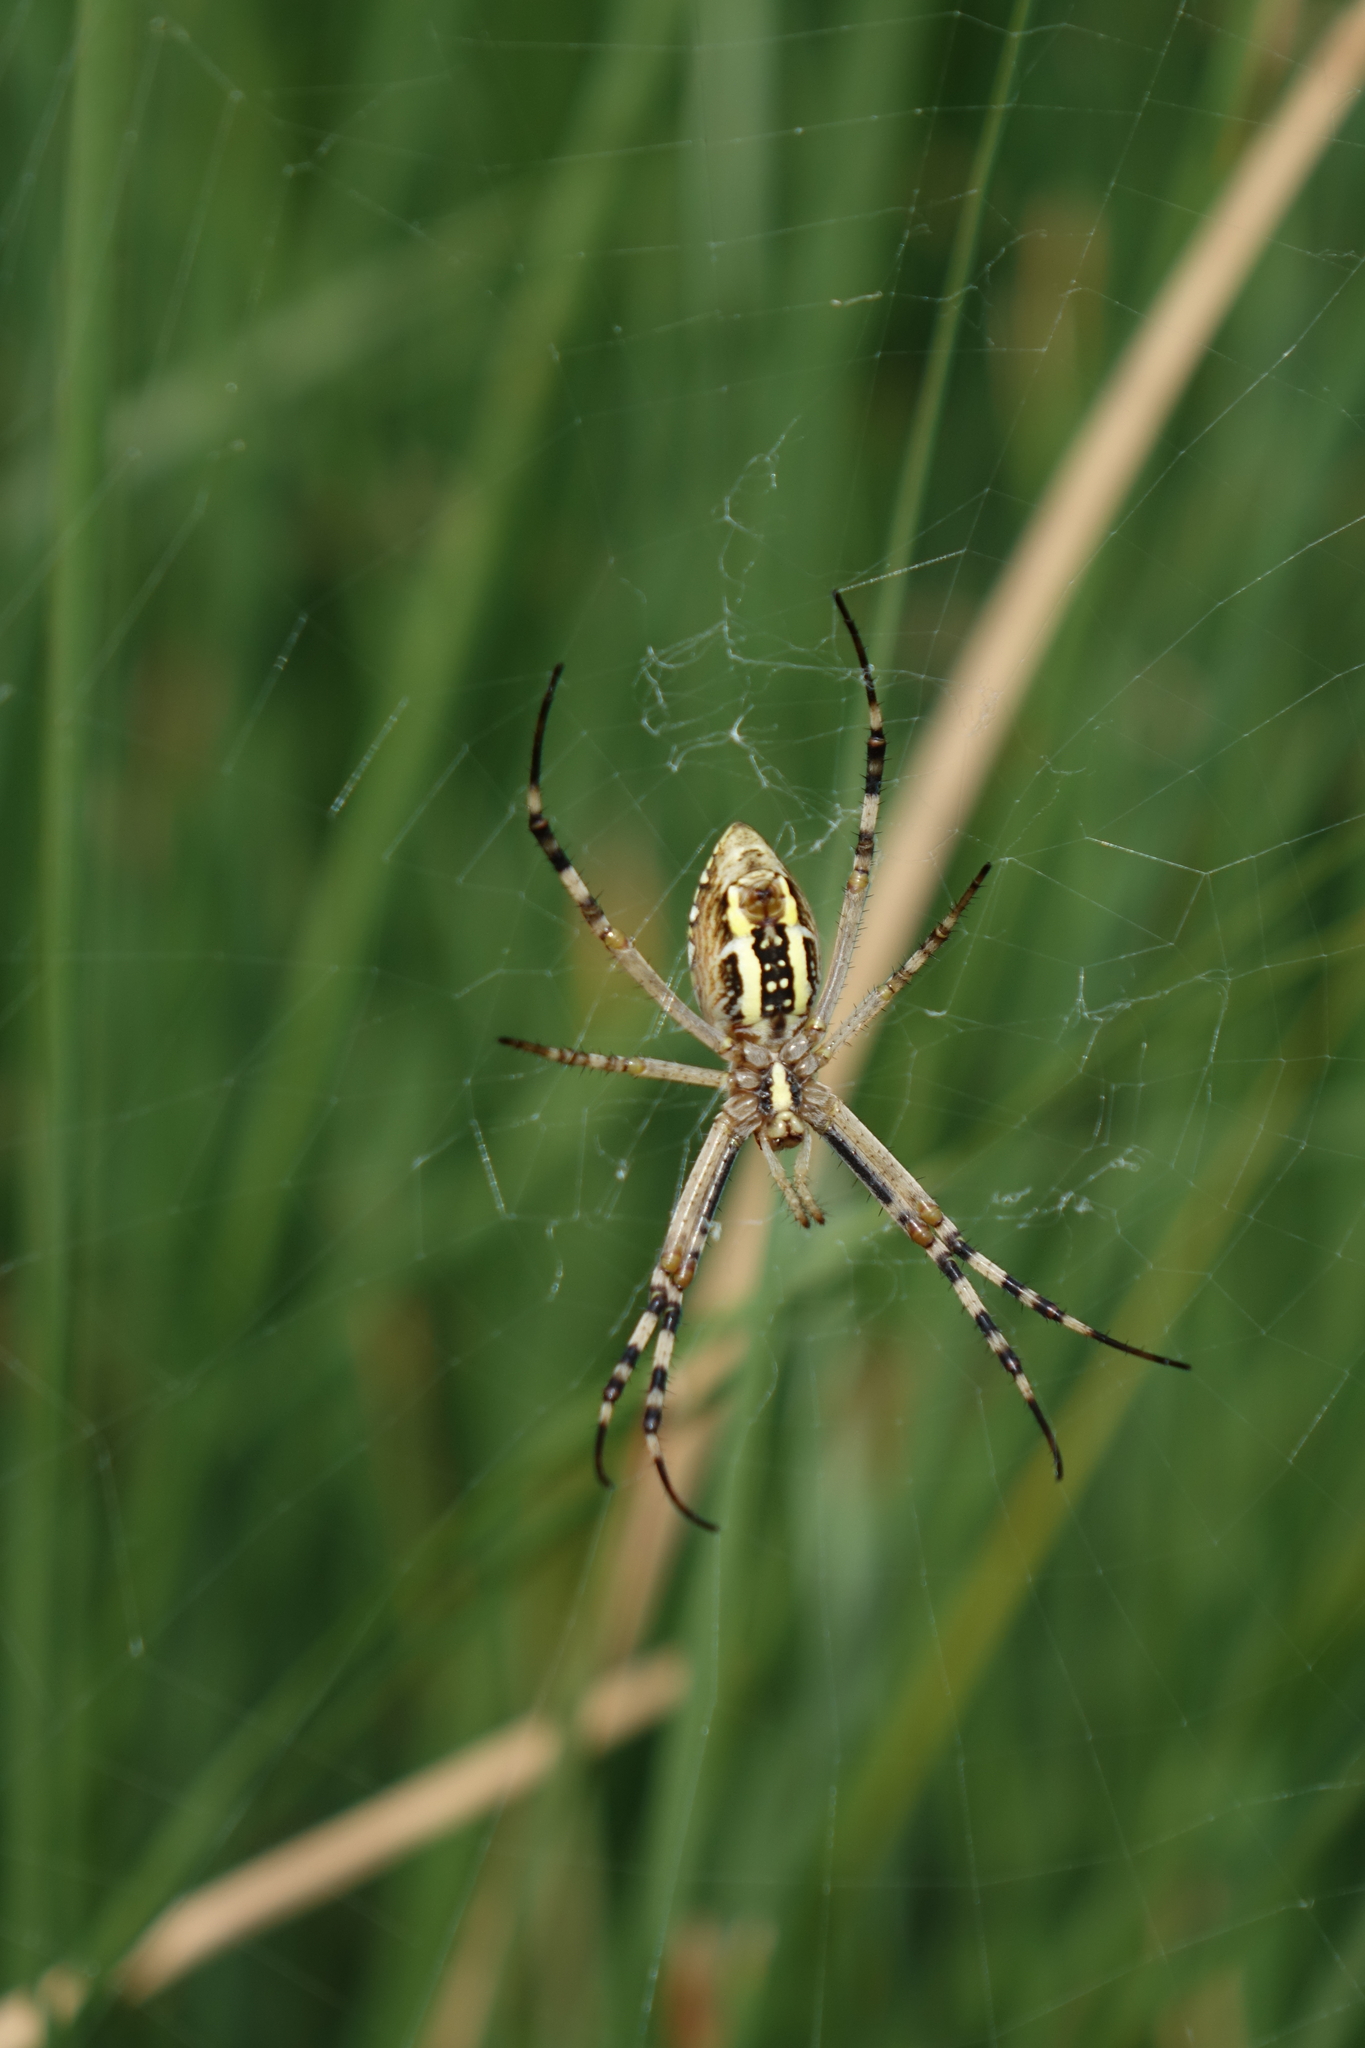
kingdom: Animalia
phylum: Arthropoda
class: Arachnida
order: Araneae
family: Araneidae
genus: Argiope
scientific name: Argiope bruennichi
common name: Wasp spider
